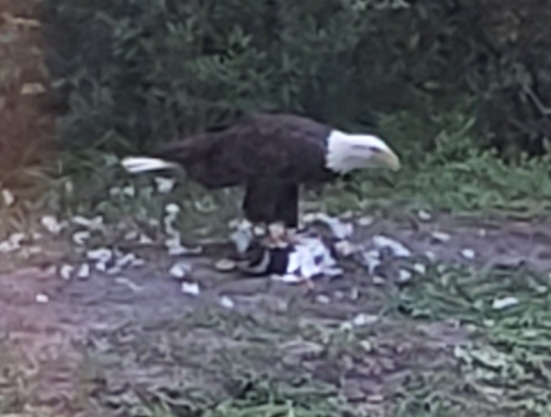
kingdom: Animalia
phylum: Chordata
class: Aves
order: Accipitriformes
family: Accipitridae
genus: Haliaeetus
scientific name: Haliaeetus leucocephalus
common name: Bald eagle
